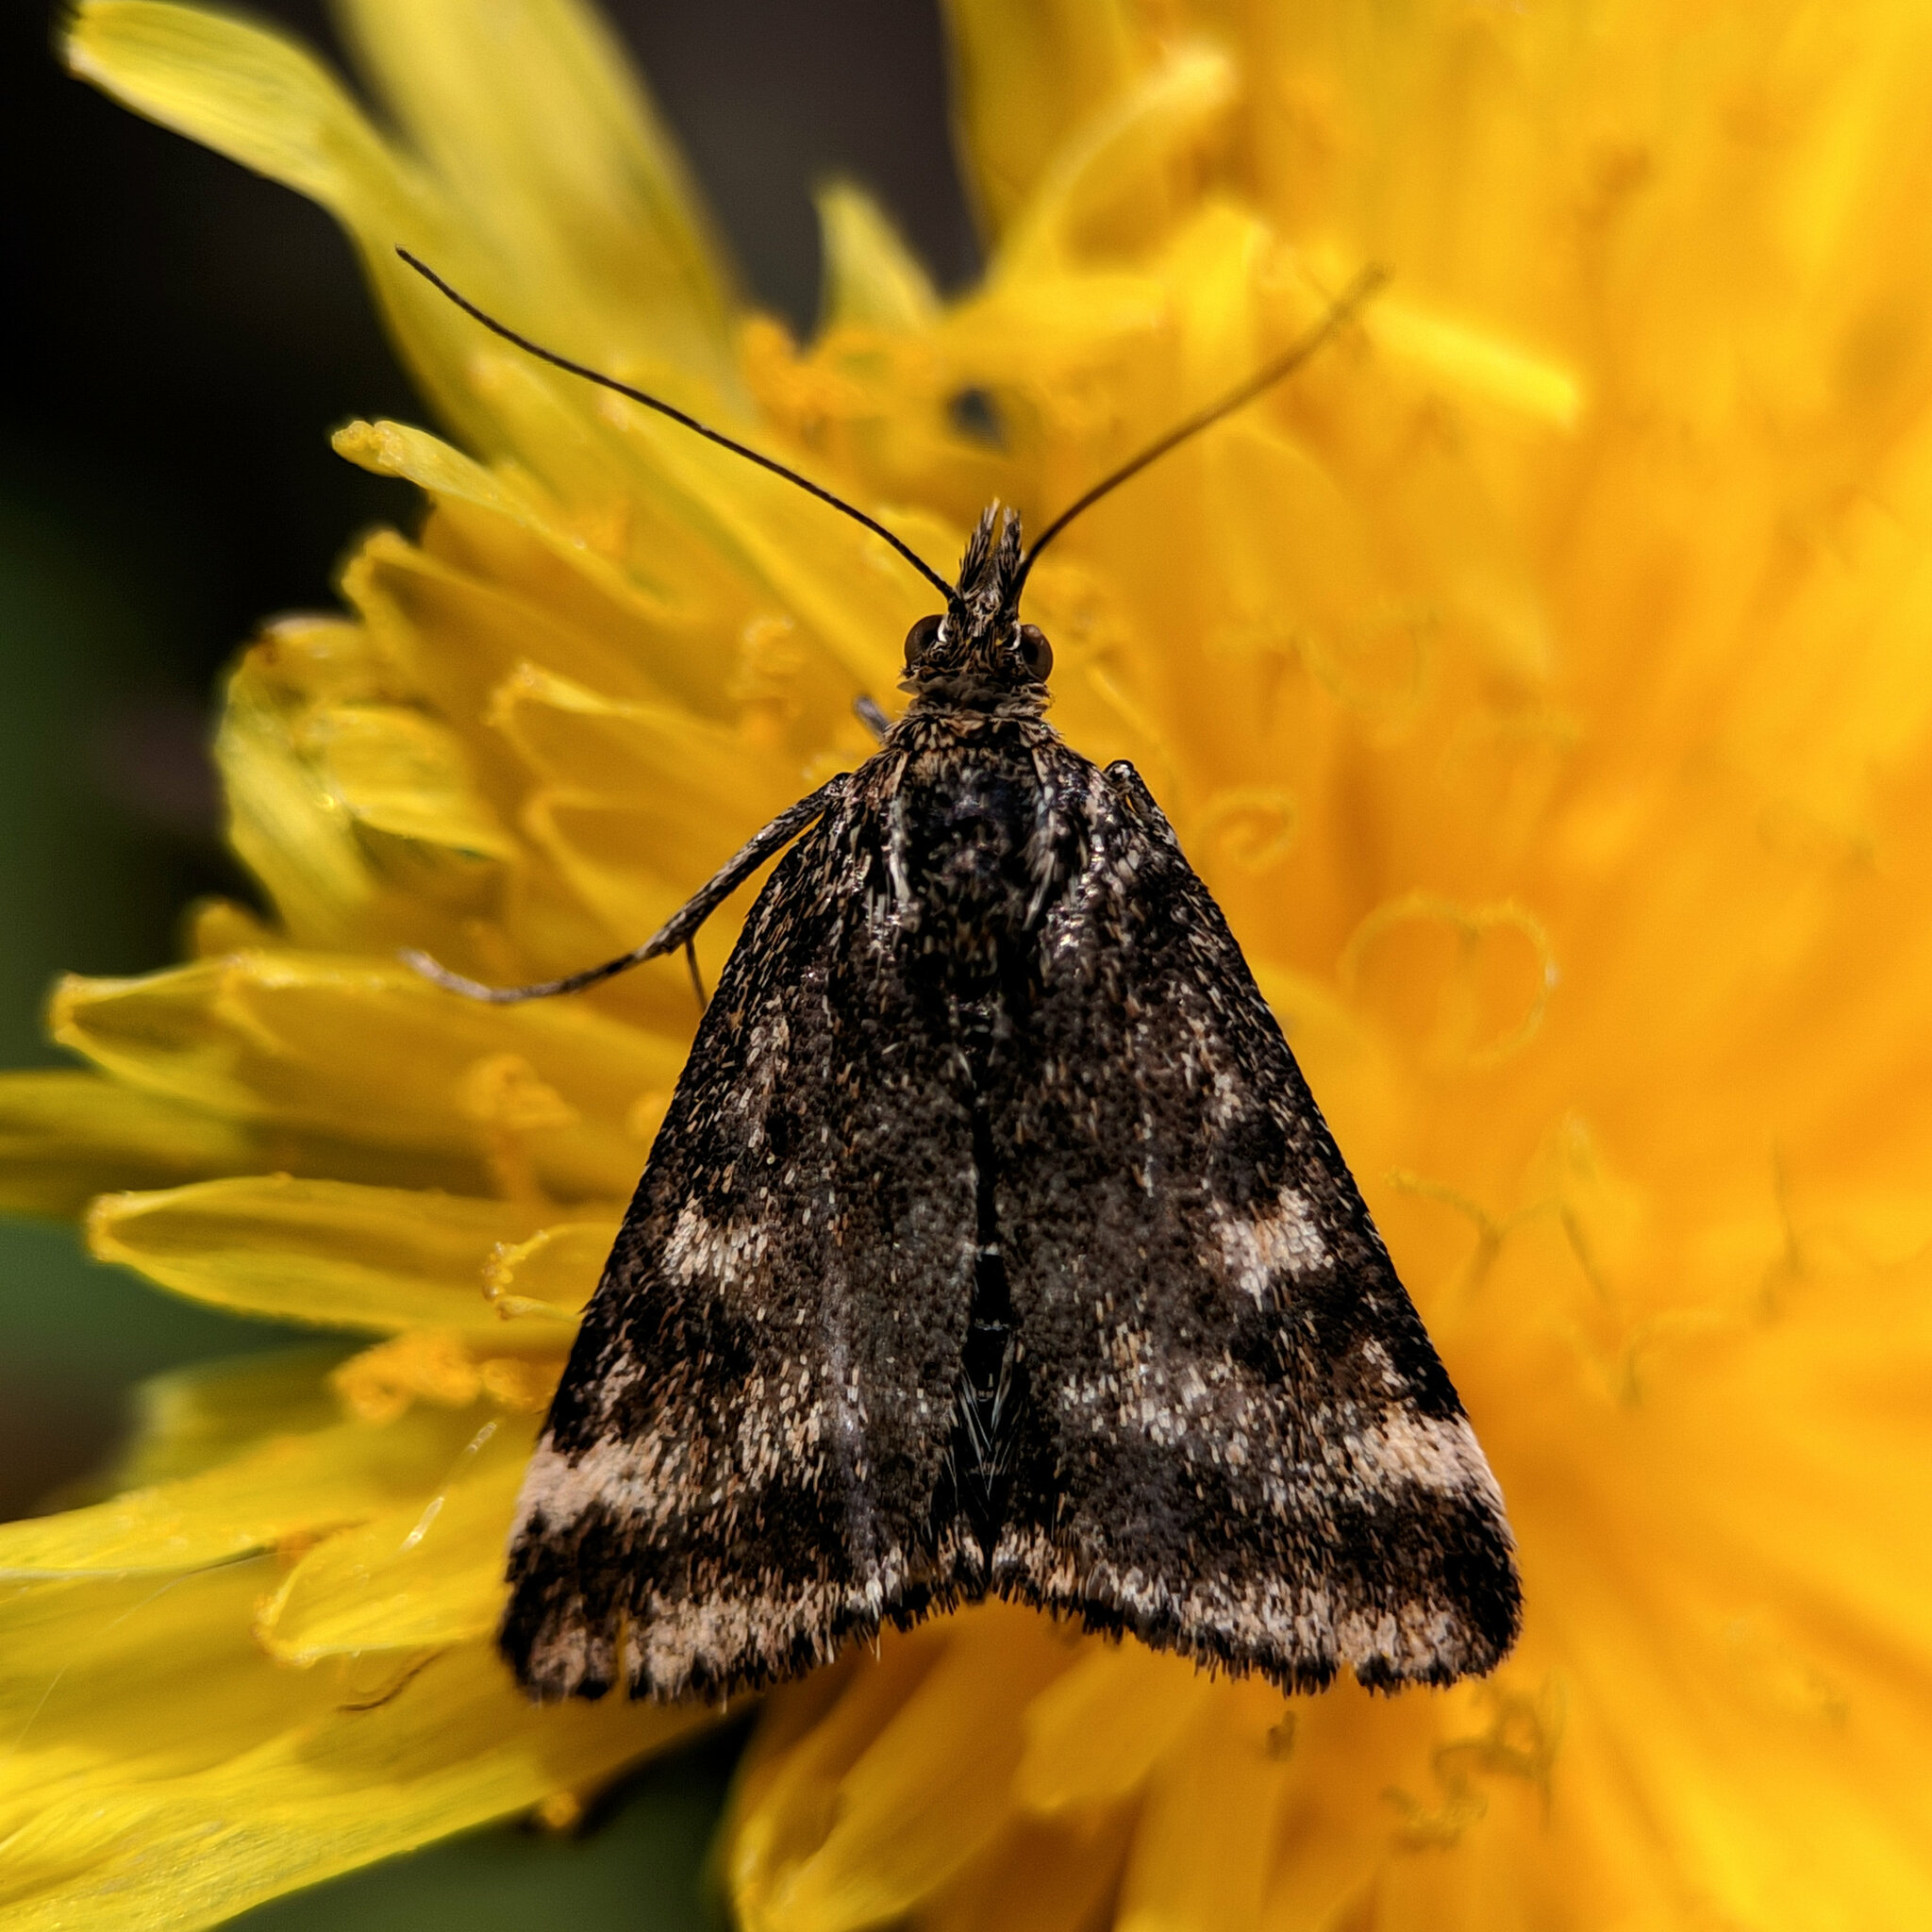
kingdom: Animalia
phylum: Arthropoda
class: Insecta
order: Lepidoptera
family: Crambidae
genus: Pyrausta
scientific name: Pyrausta despicata
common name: Straw-barred pearl
